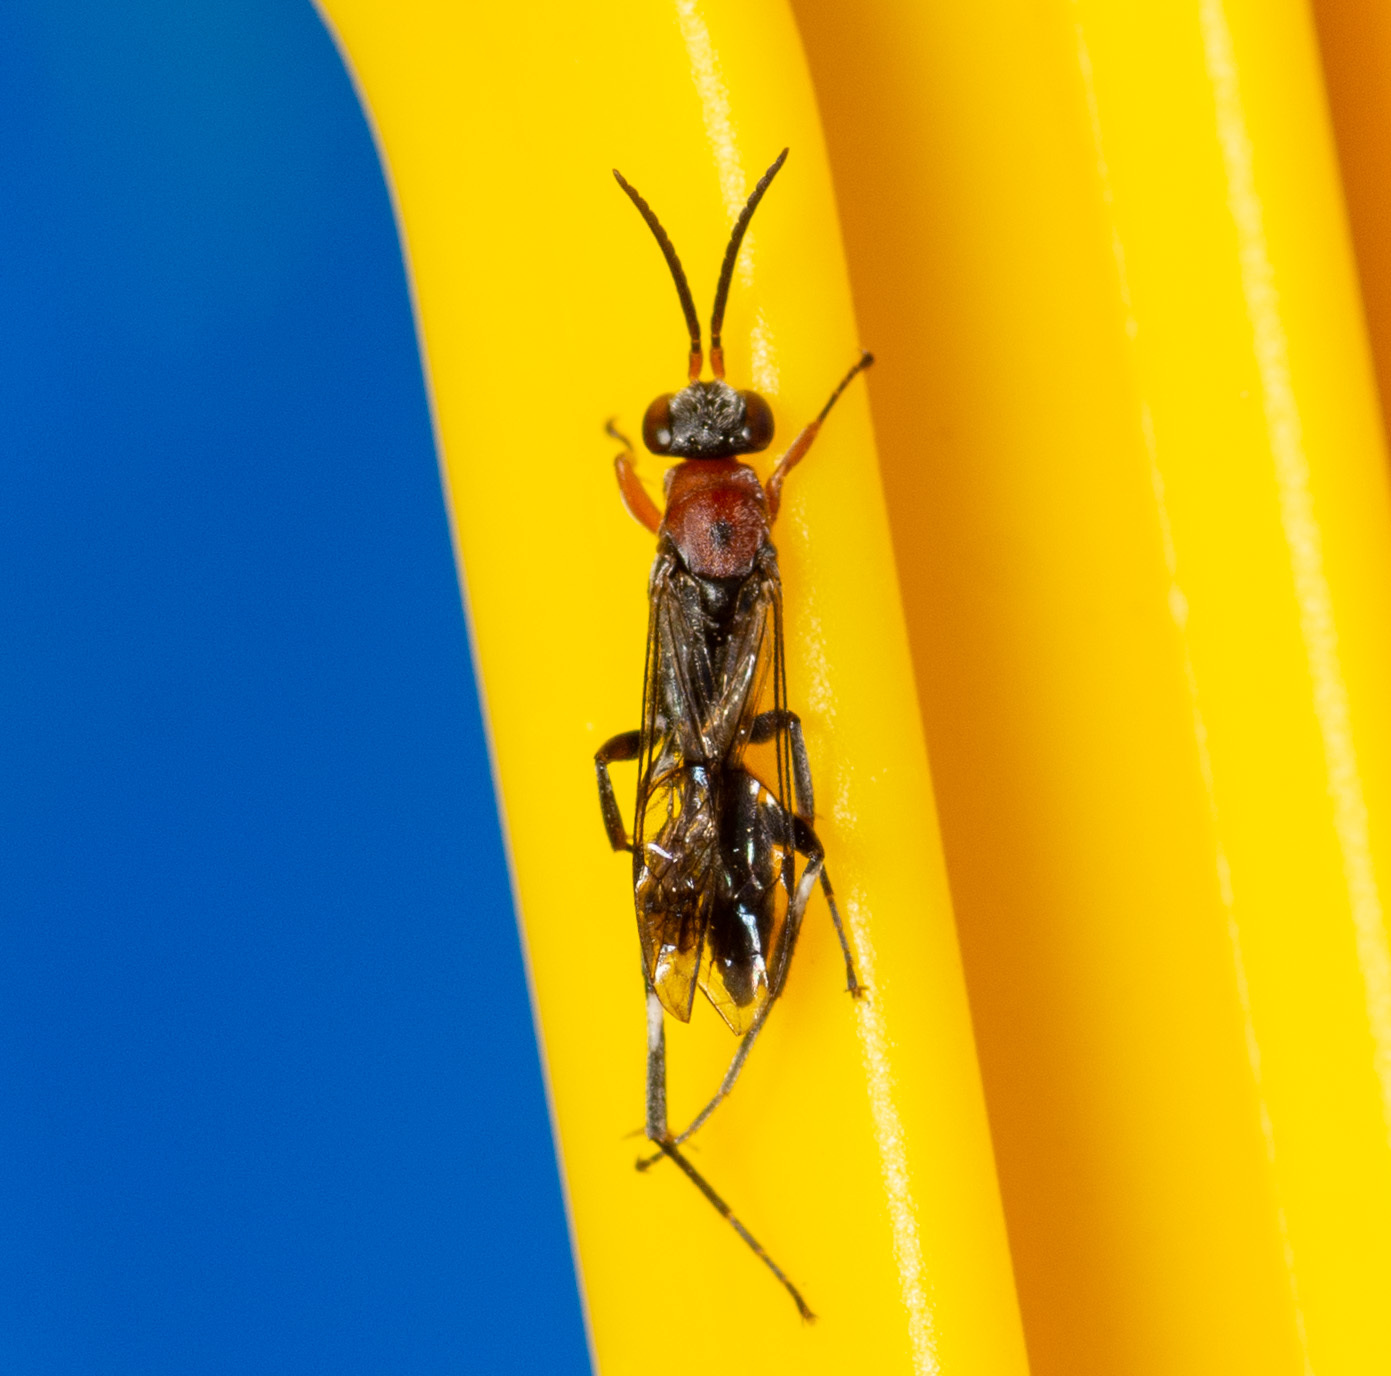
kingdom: Animalia
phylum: Arthropoda
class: Insecta
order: Hymenoptera
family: Pompilidae
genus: Epipompilus
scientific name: Epipompilus aztecus
